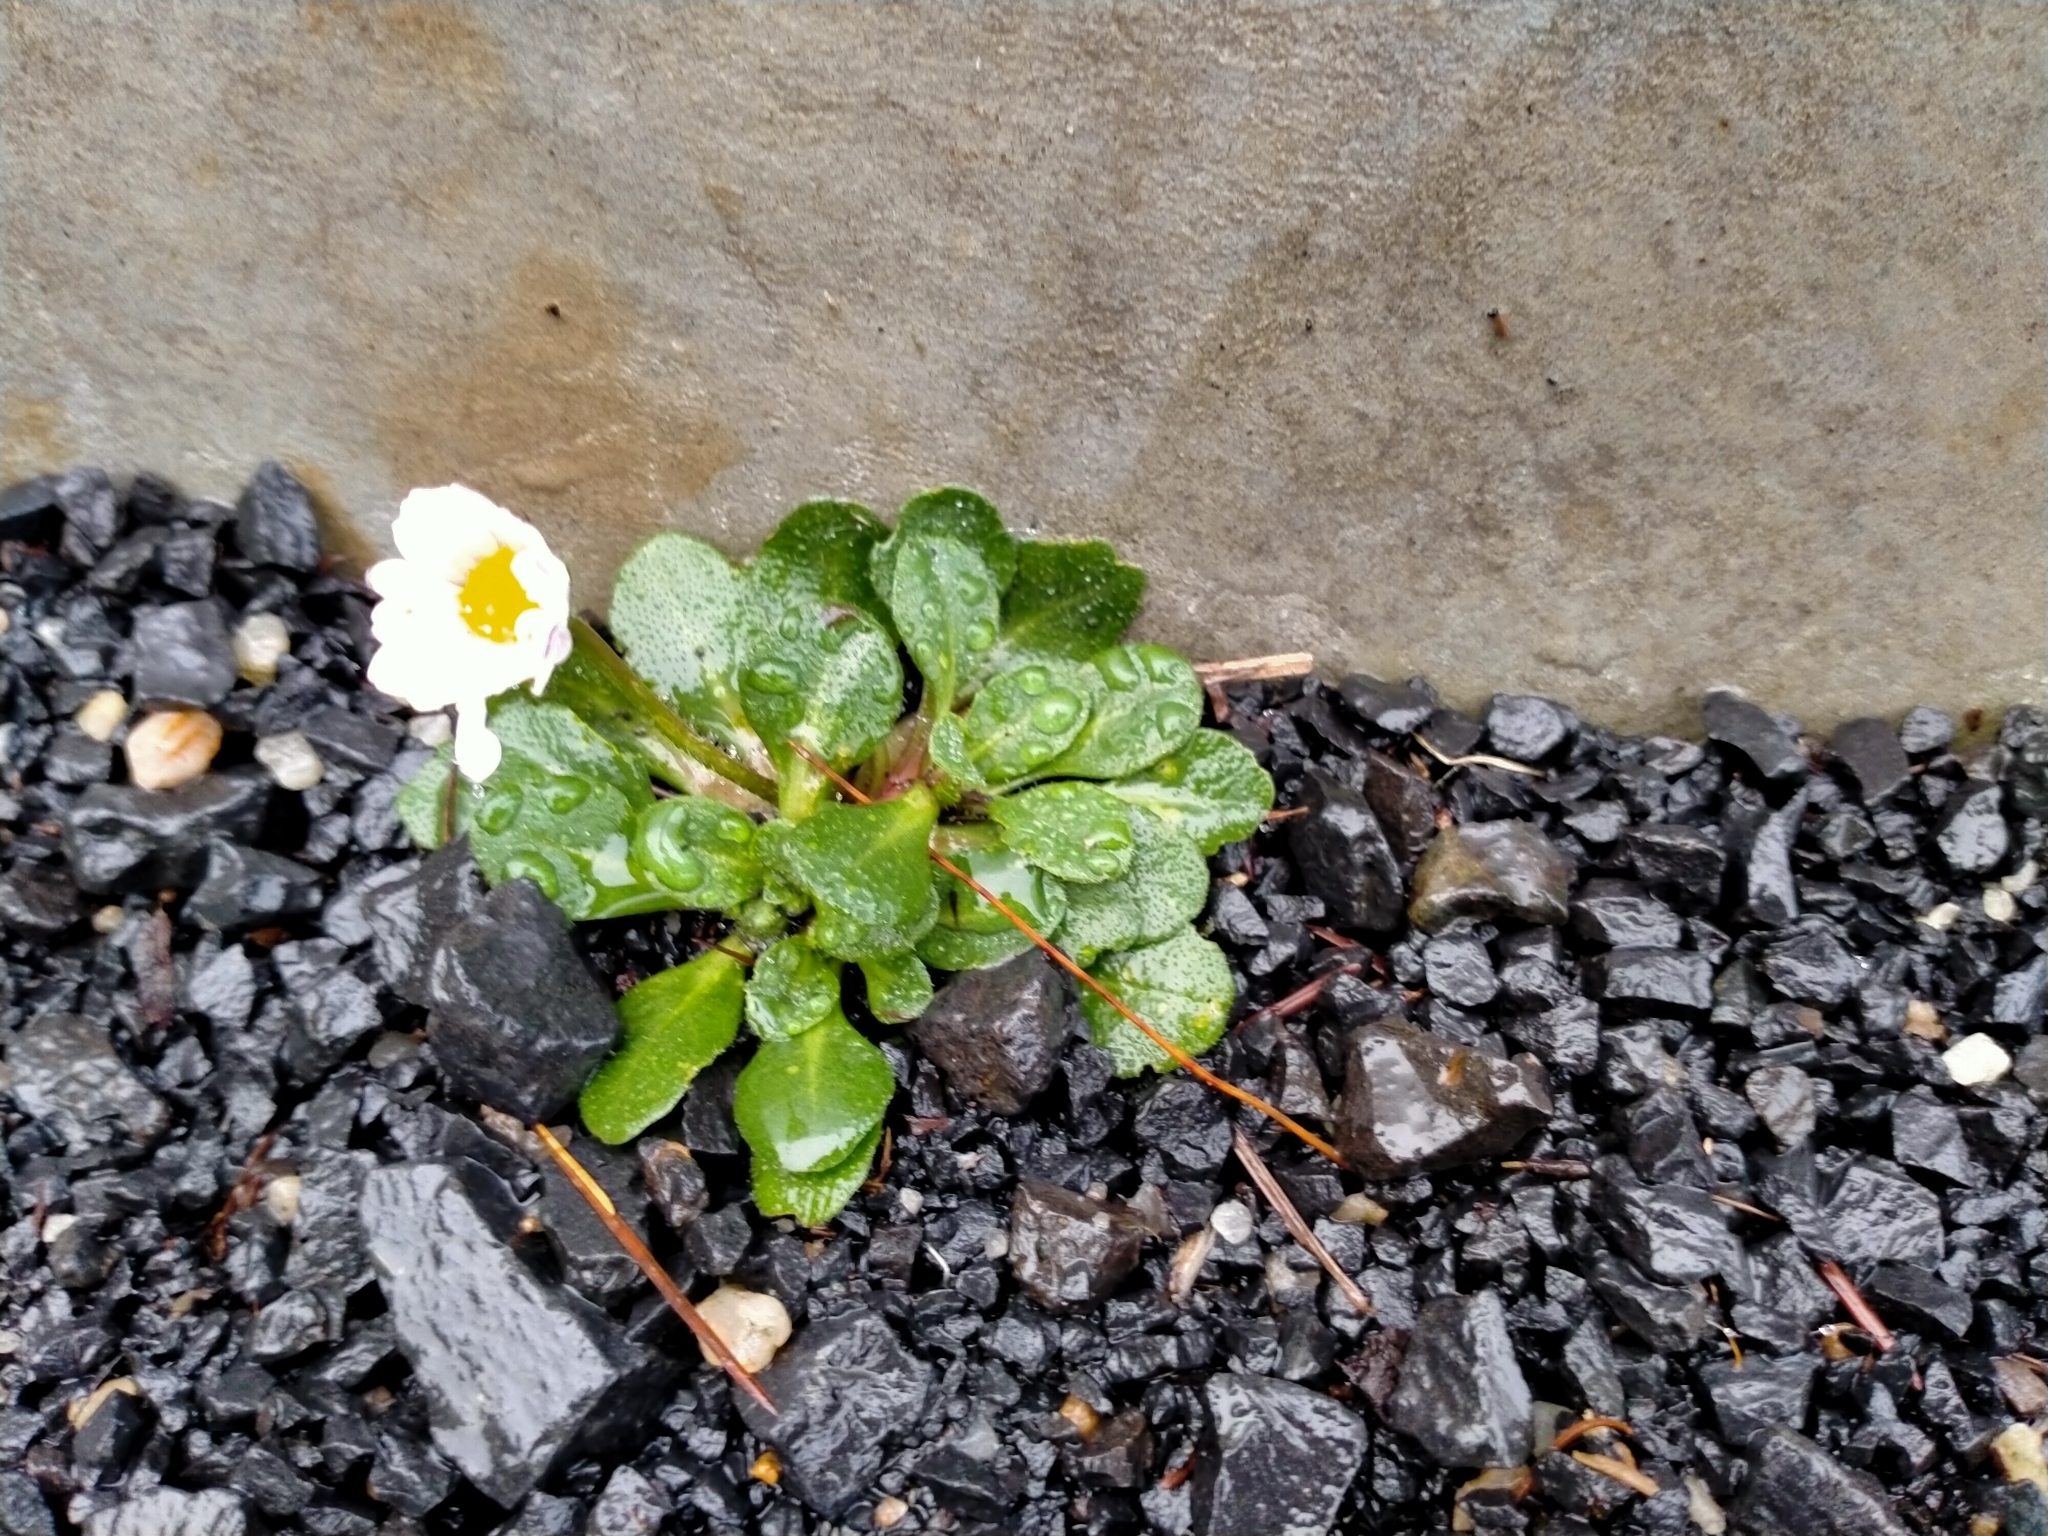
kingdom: Plantae
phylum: Tracheophyta
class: Magnoliopsida
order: Asterales
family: Asteraceae
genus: Bellis
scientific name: Bellis perennis
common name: Lawndaisy
